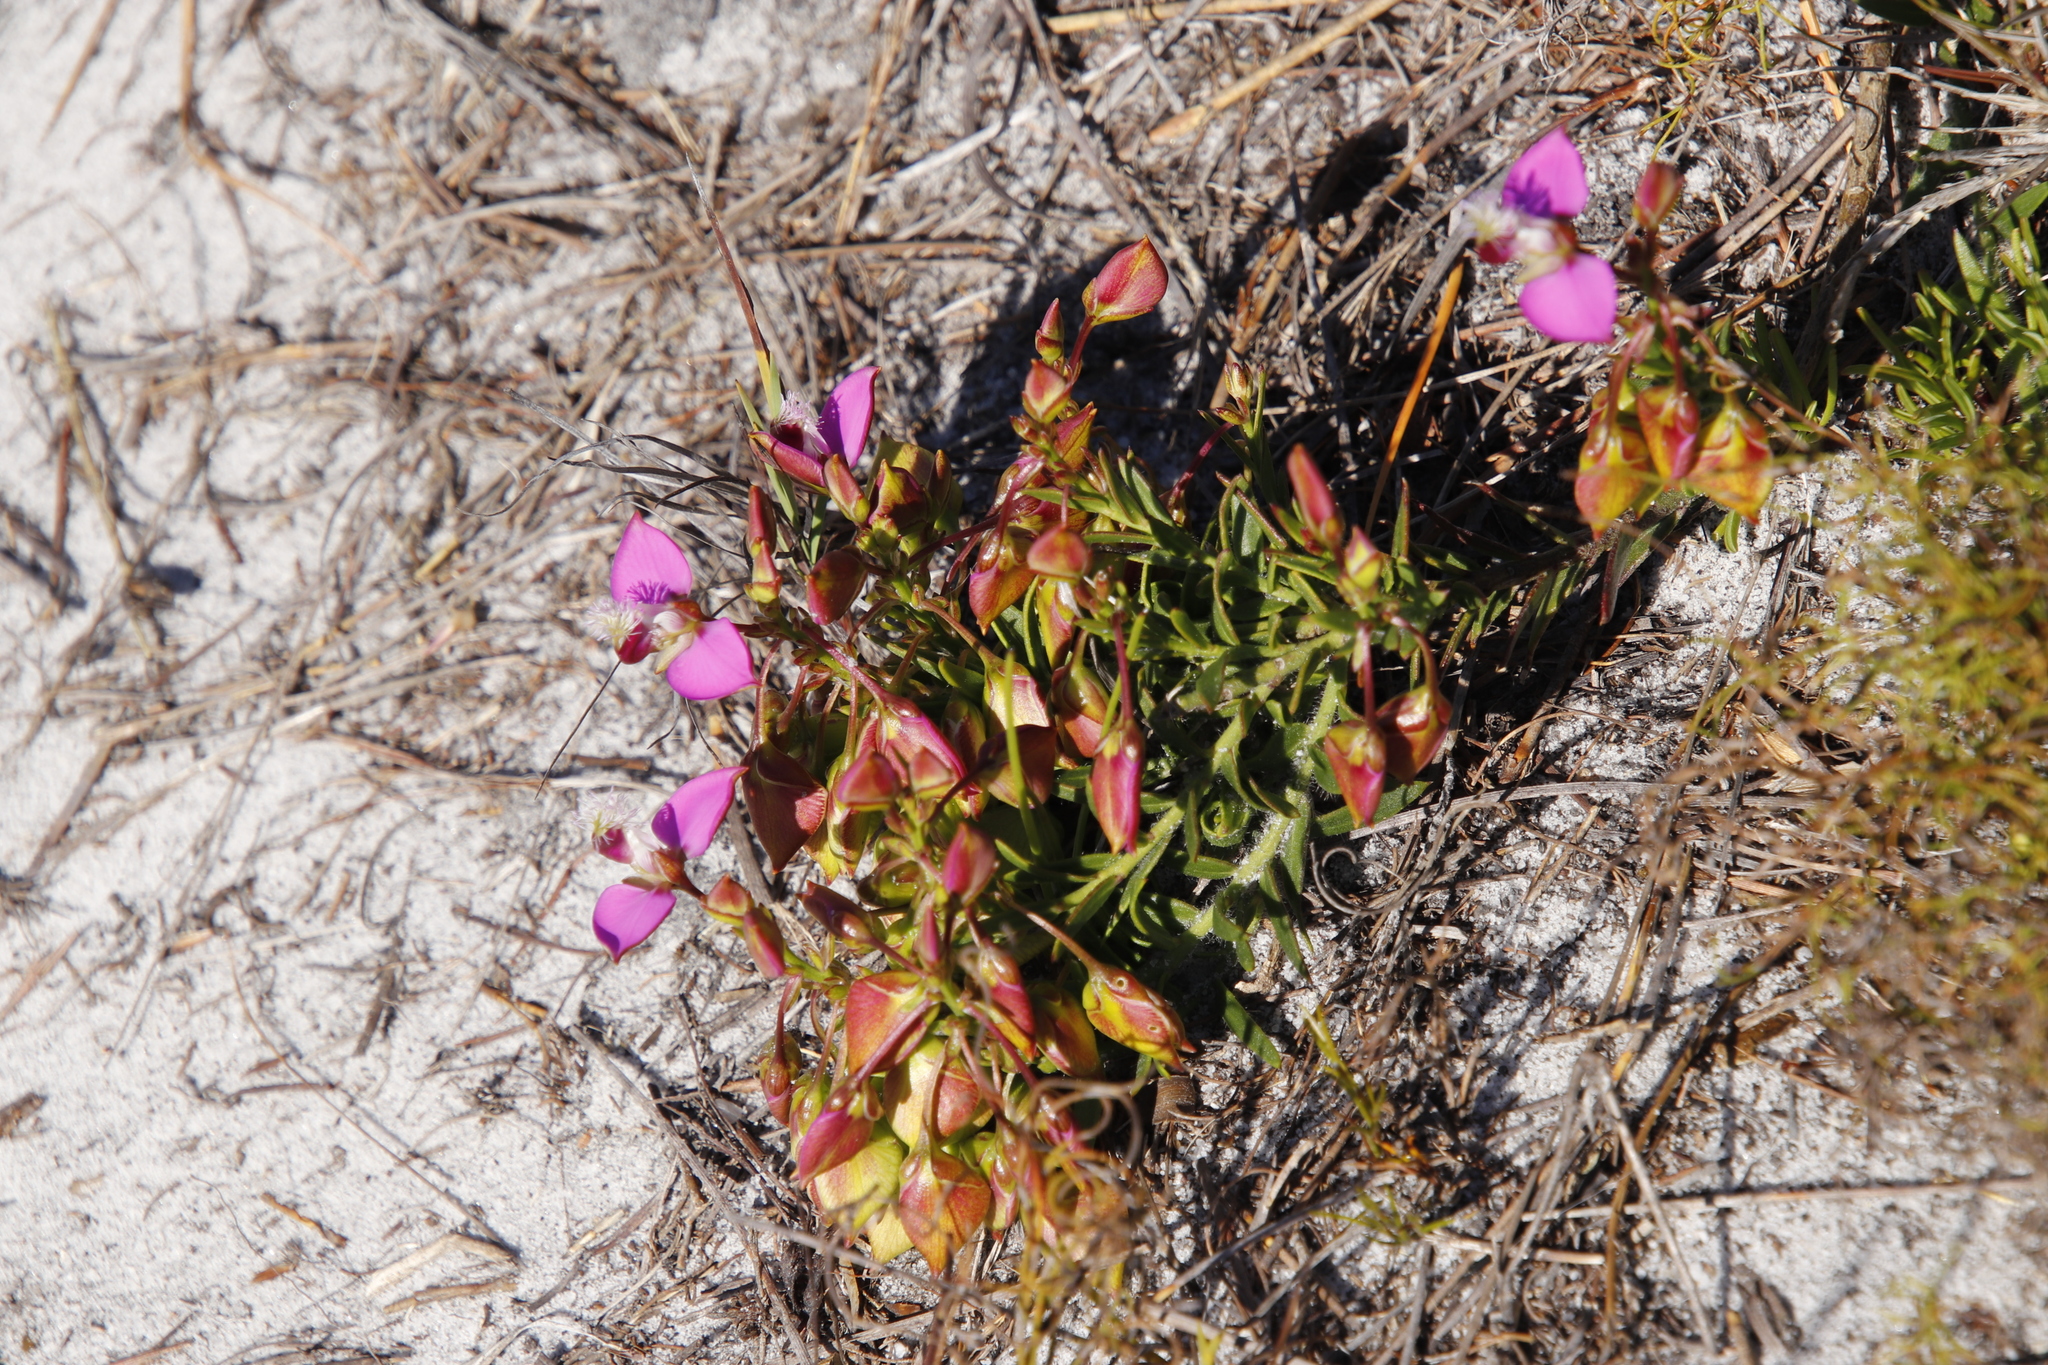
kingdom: Plantae
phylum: Tracheophyta
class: Magnoliopsida
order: Fabales
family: Polygalaceae
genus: Polygala
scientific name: Polygala bracteolata
